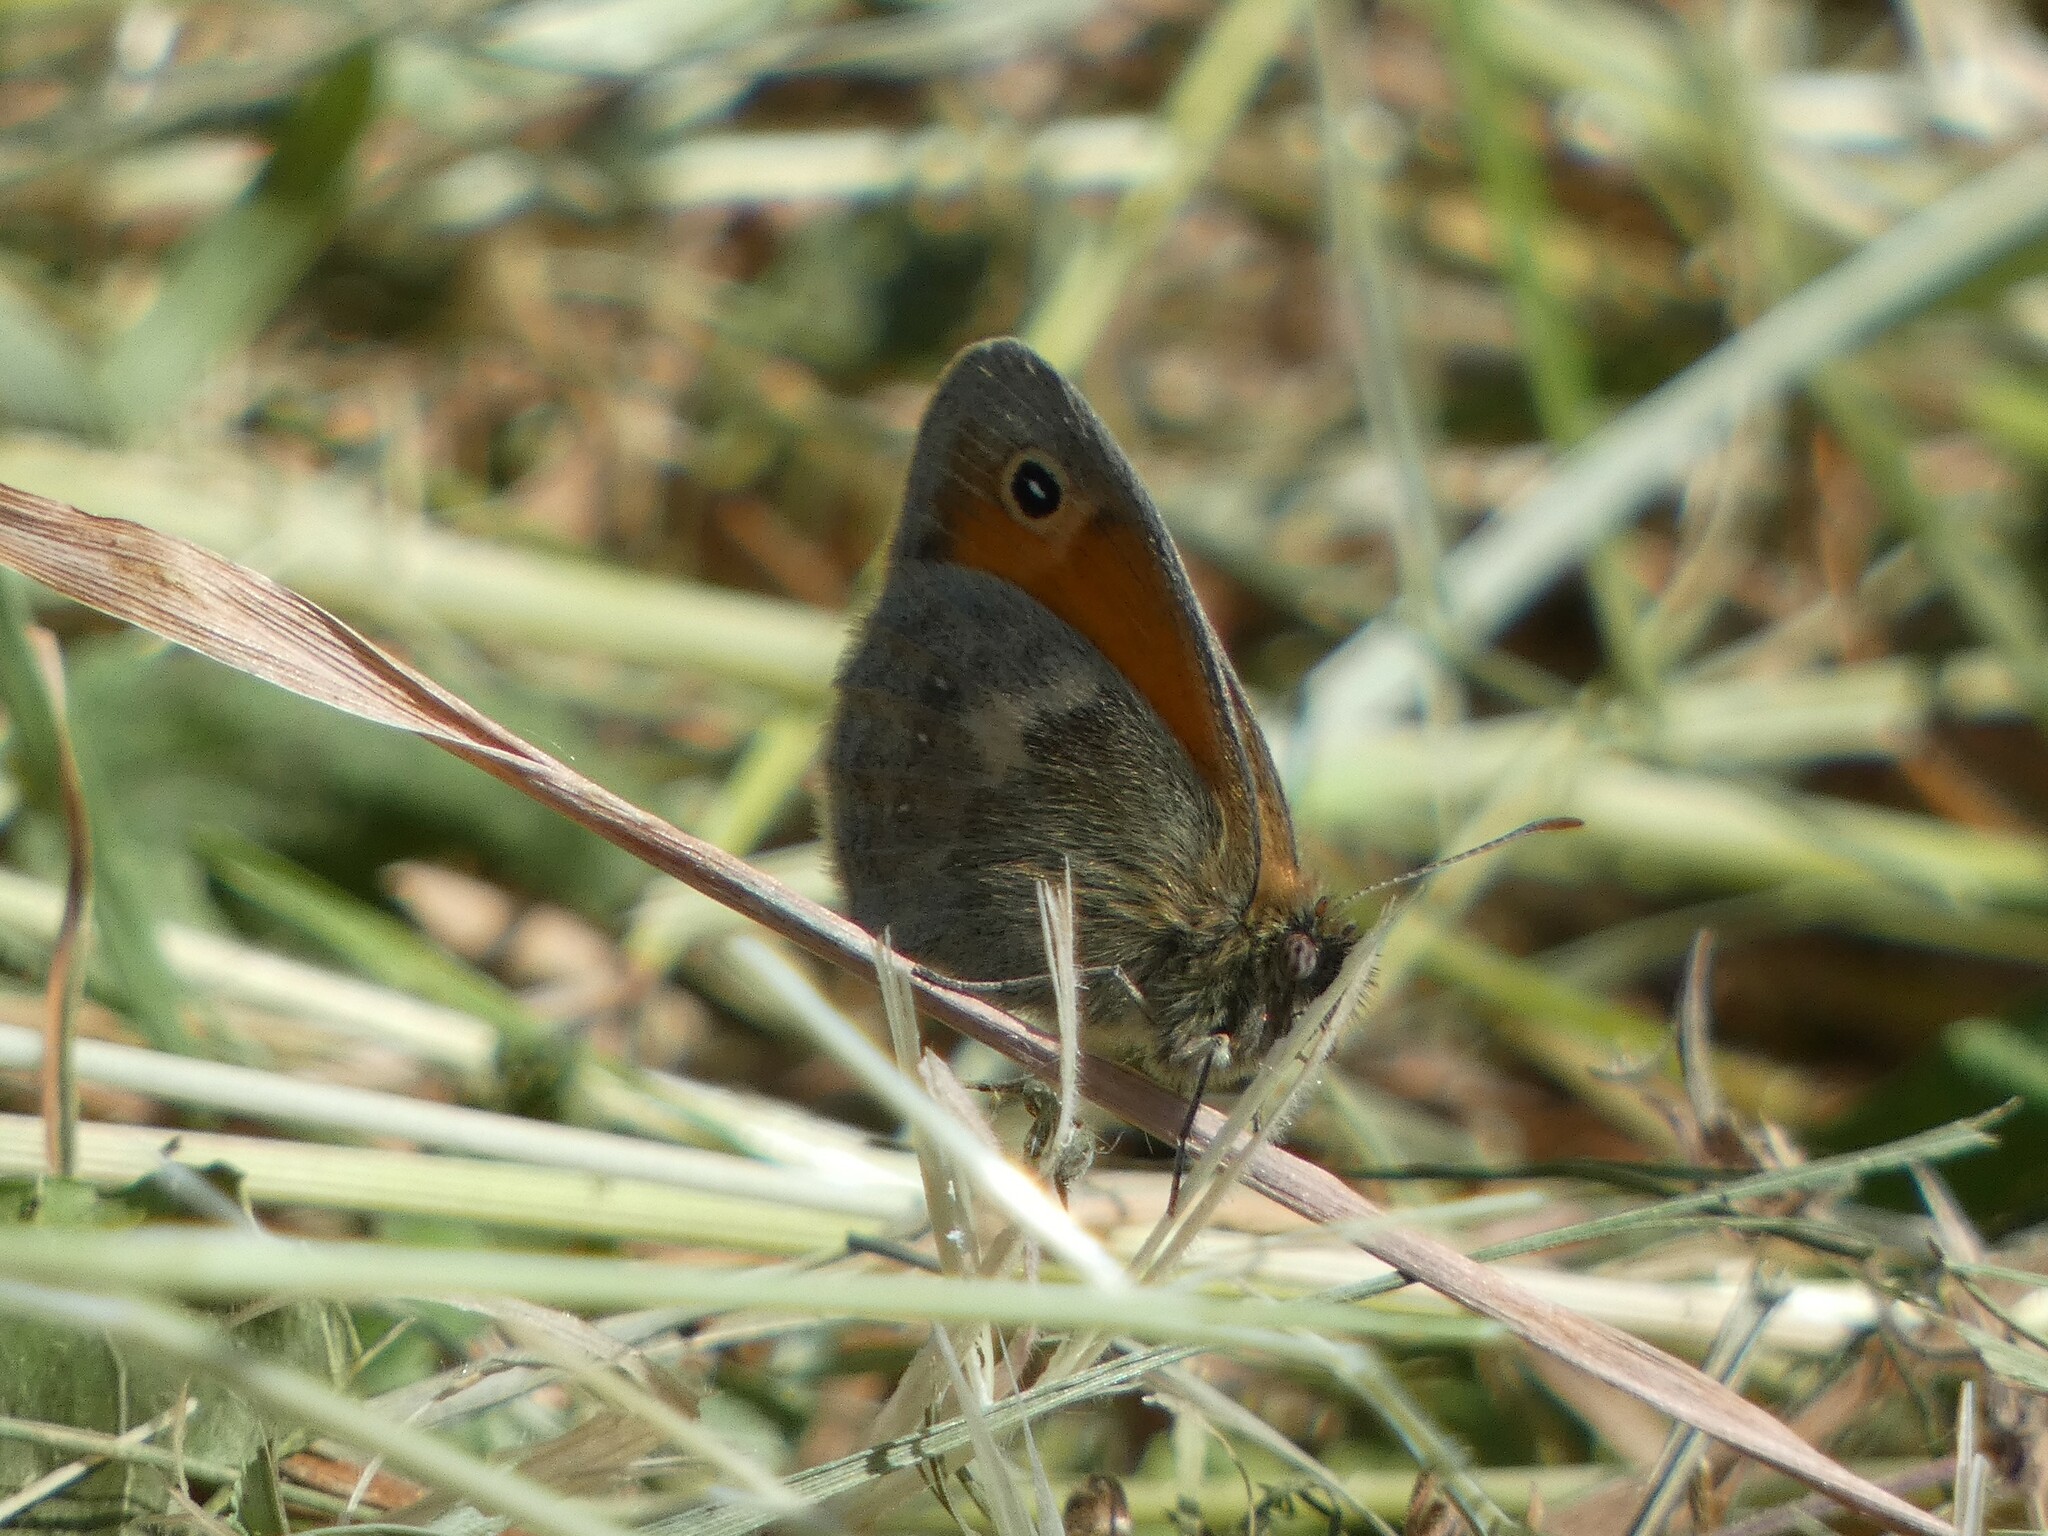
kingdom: Animalia
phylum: Arthropoda
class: Insecta
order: Lepidoptera
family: Nymphalidae
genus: Coenonympha
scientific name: Coenonympha pamphilus
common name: Small heath
